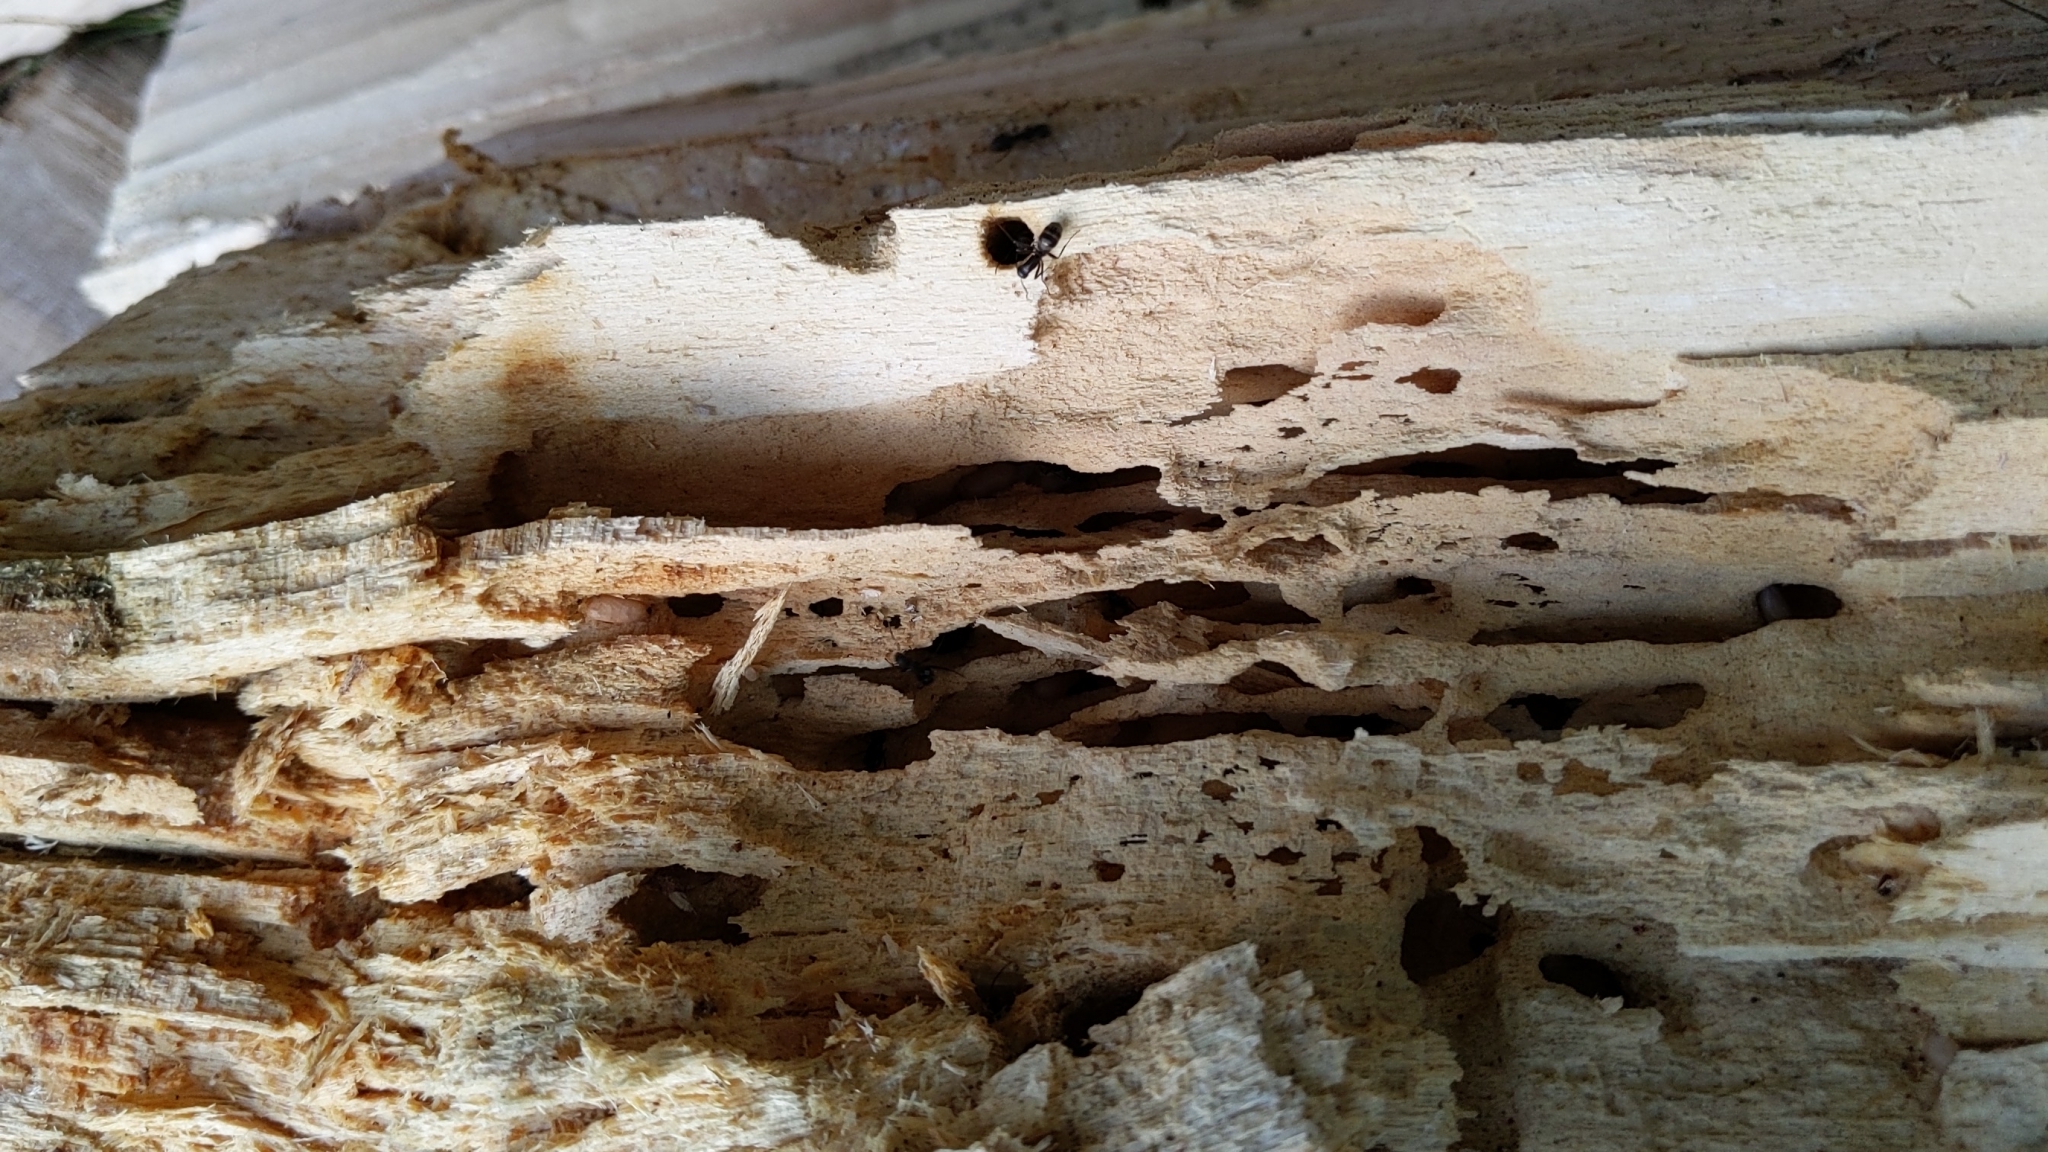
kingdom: Animalia
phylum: Arthropoda
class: Insecta
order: Hymenoptera
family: Formicidae
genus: Camponotus
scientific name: Camponotus pennsylvanicus
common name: Black carpenter ant
